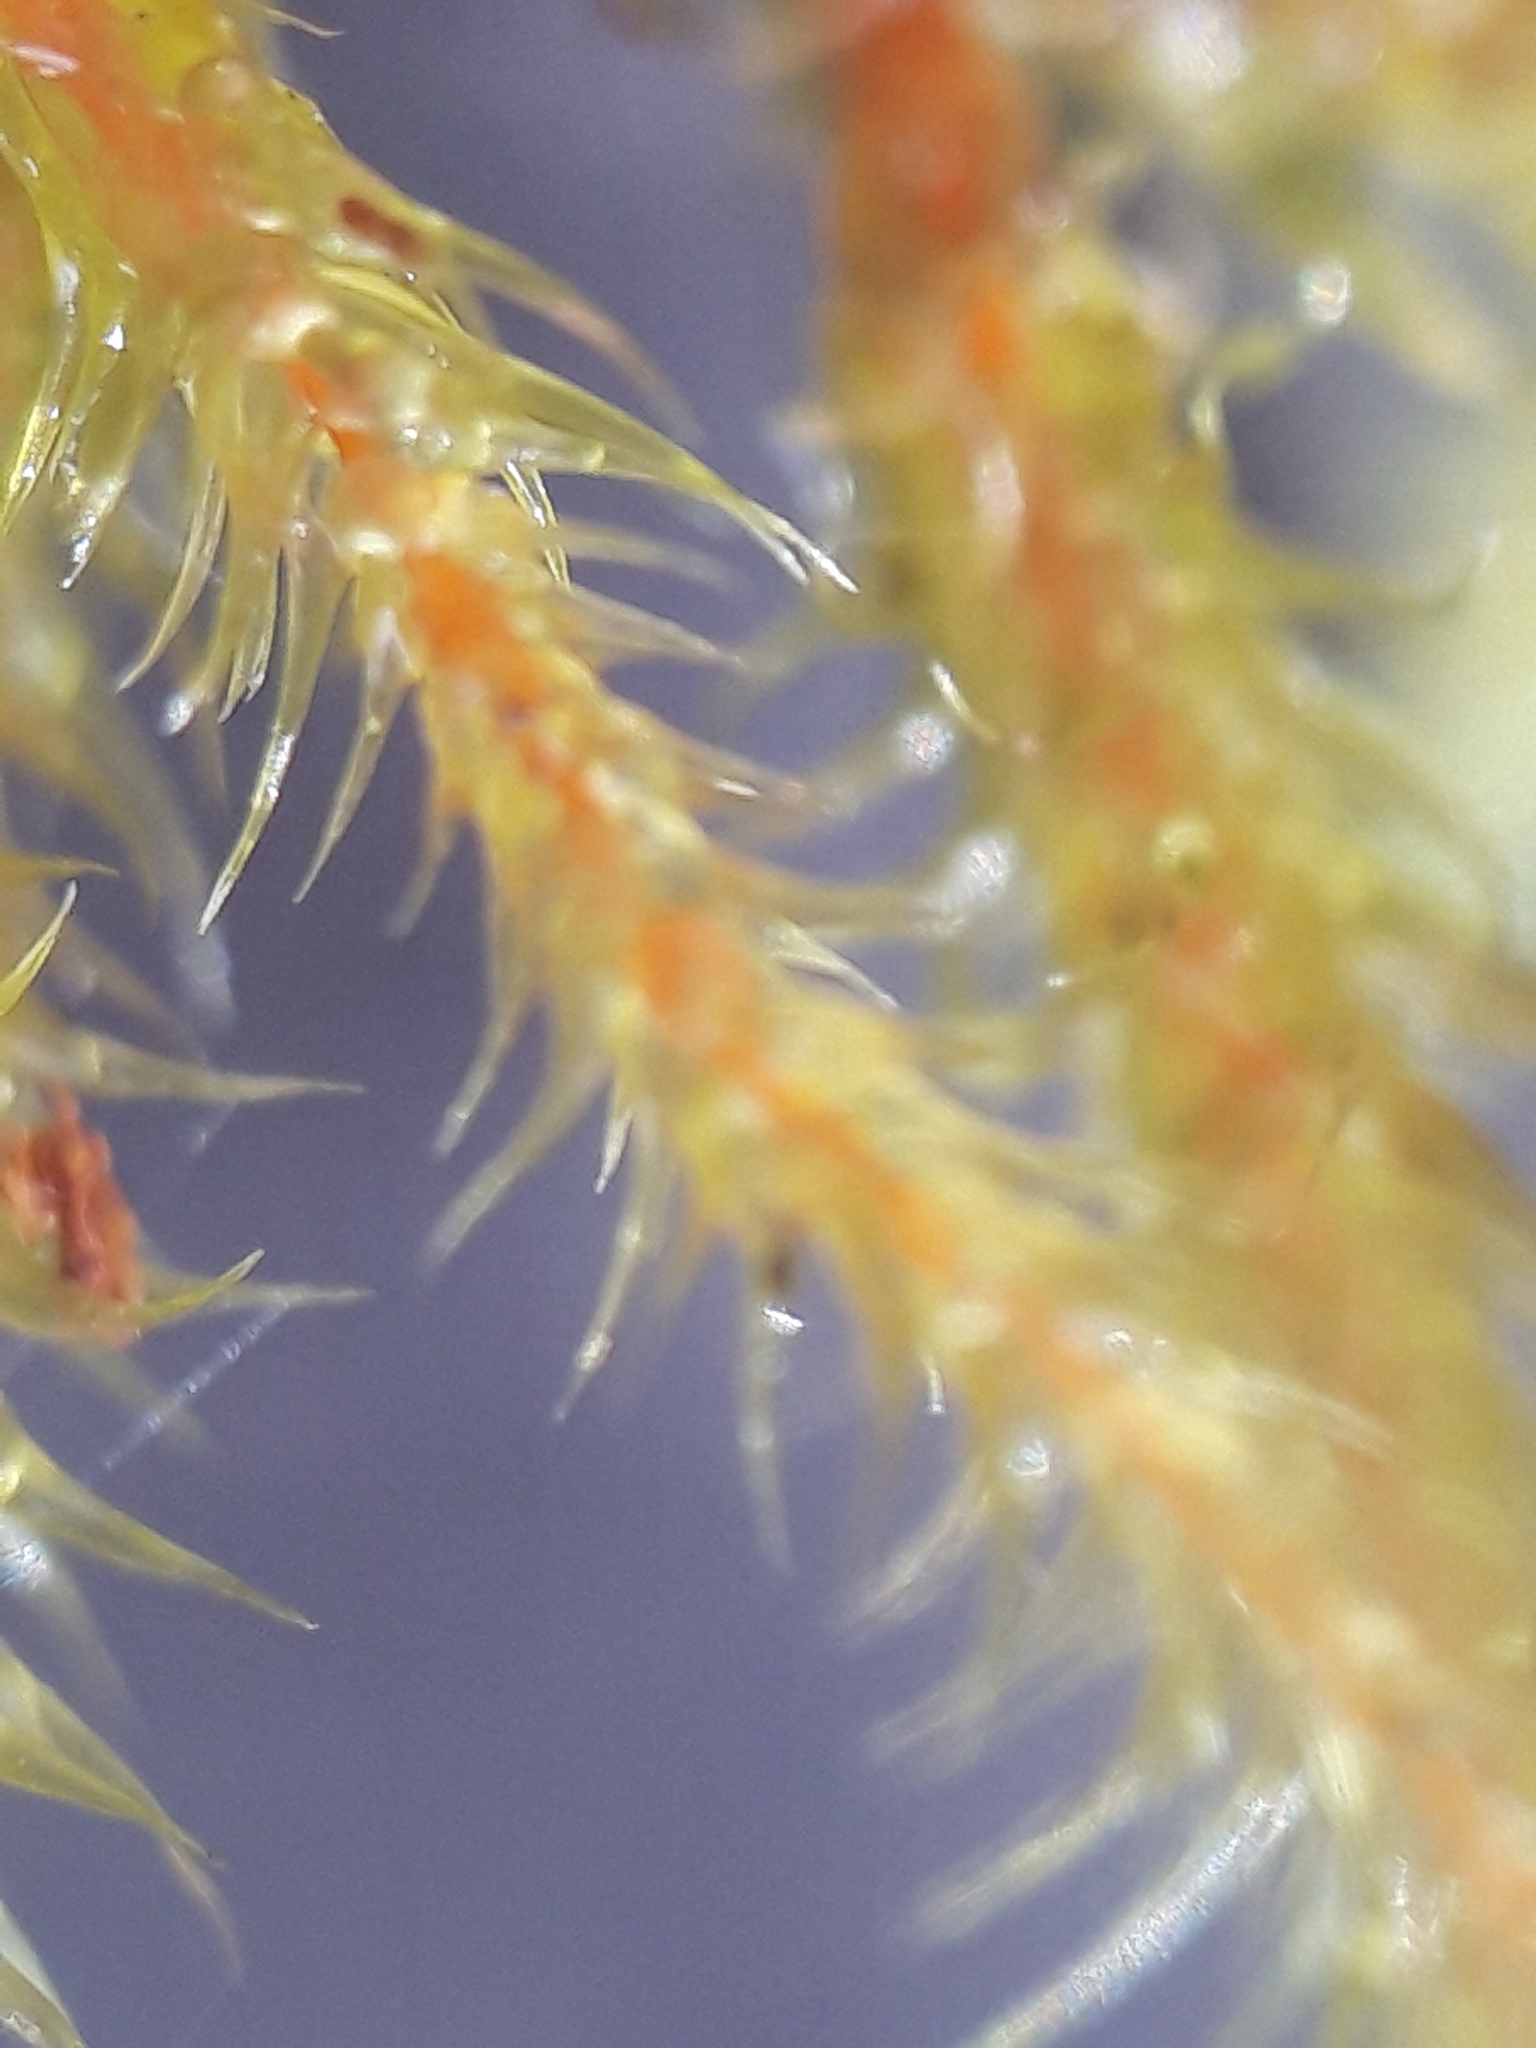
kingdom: Plantae
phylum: Bryophyta
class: Bryopsida
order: Hypnales
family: Hylocomiaceae
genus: Rhytidiadelphus
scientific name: Rhytidiadelphus loreus
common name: Lanky moss
